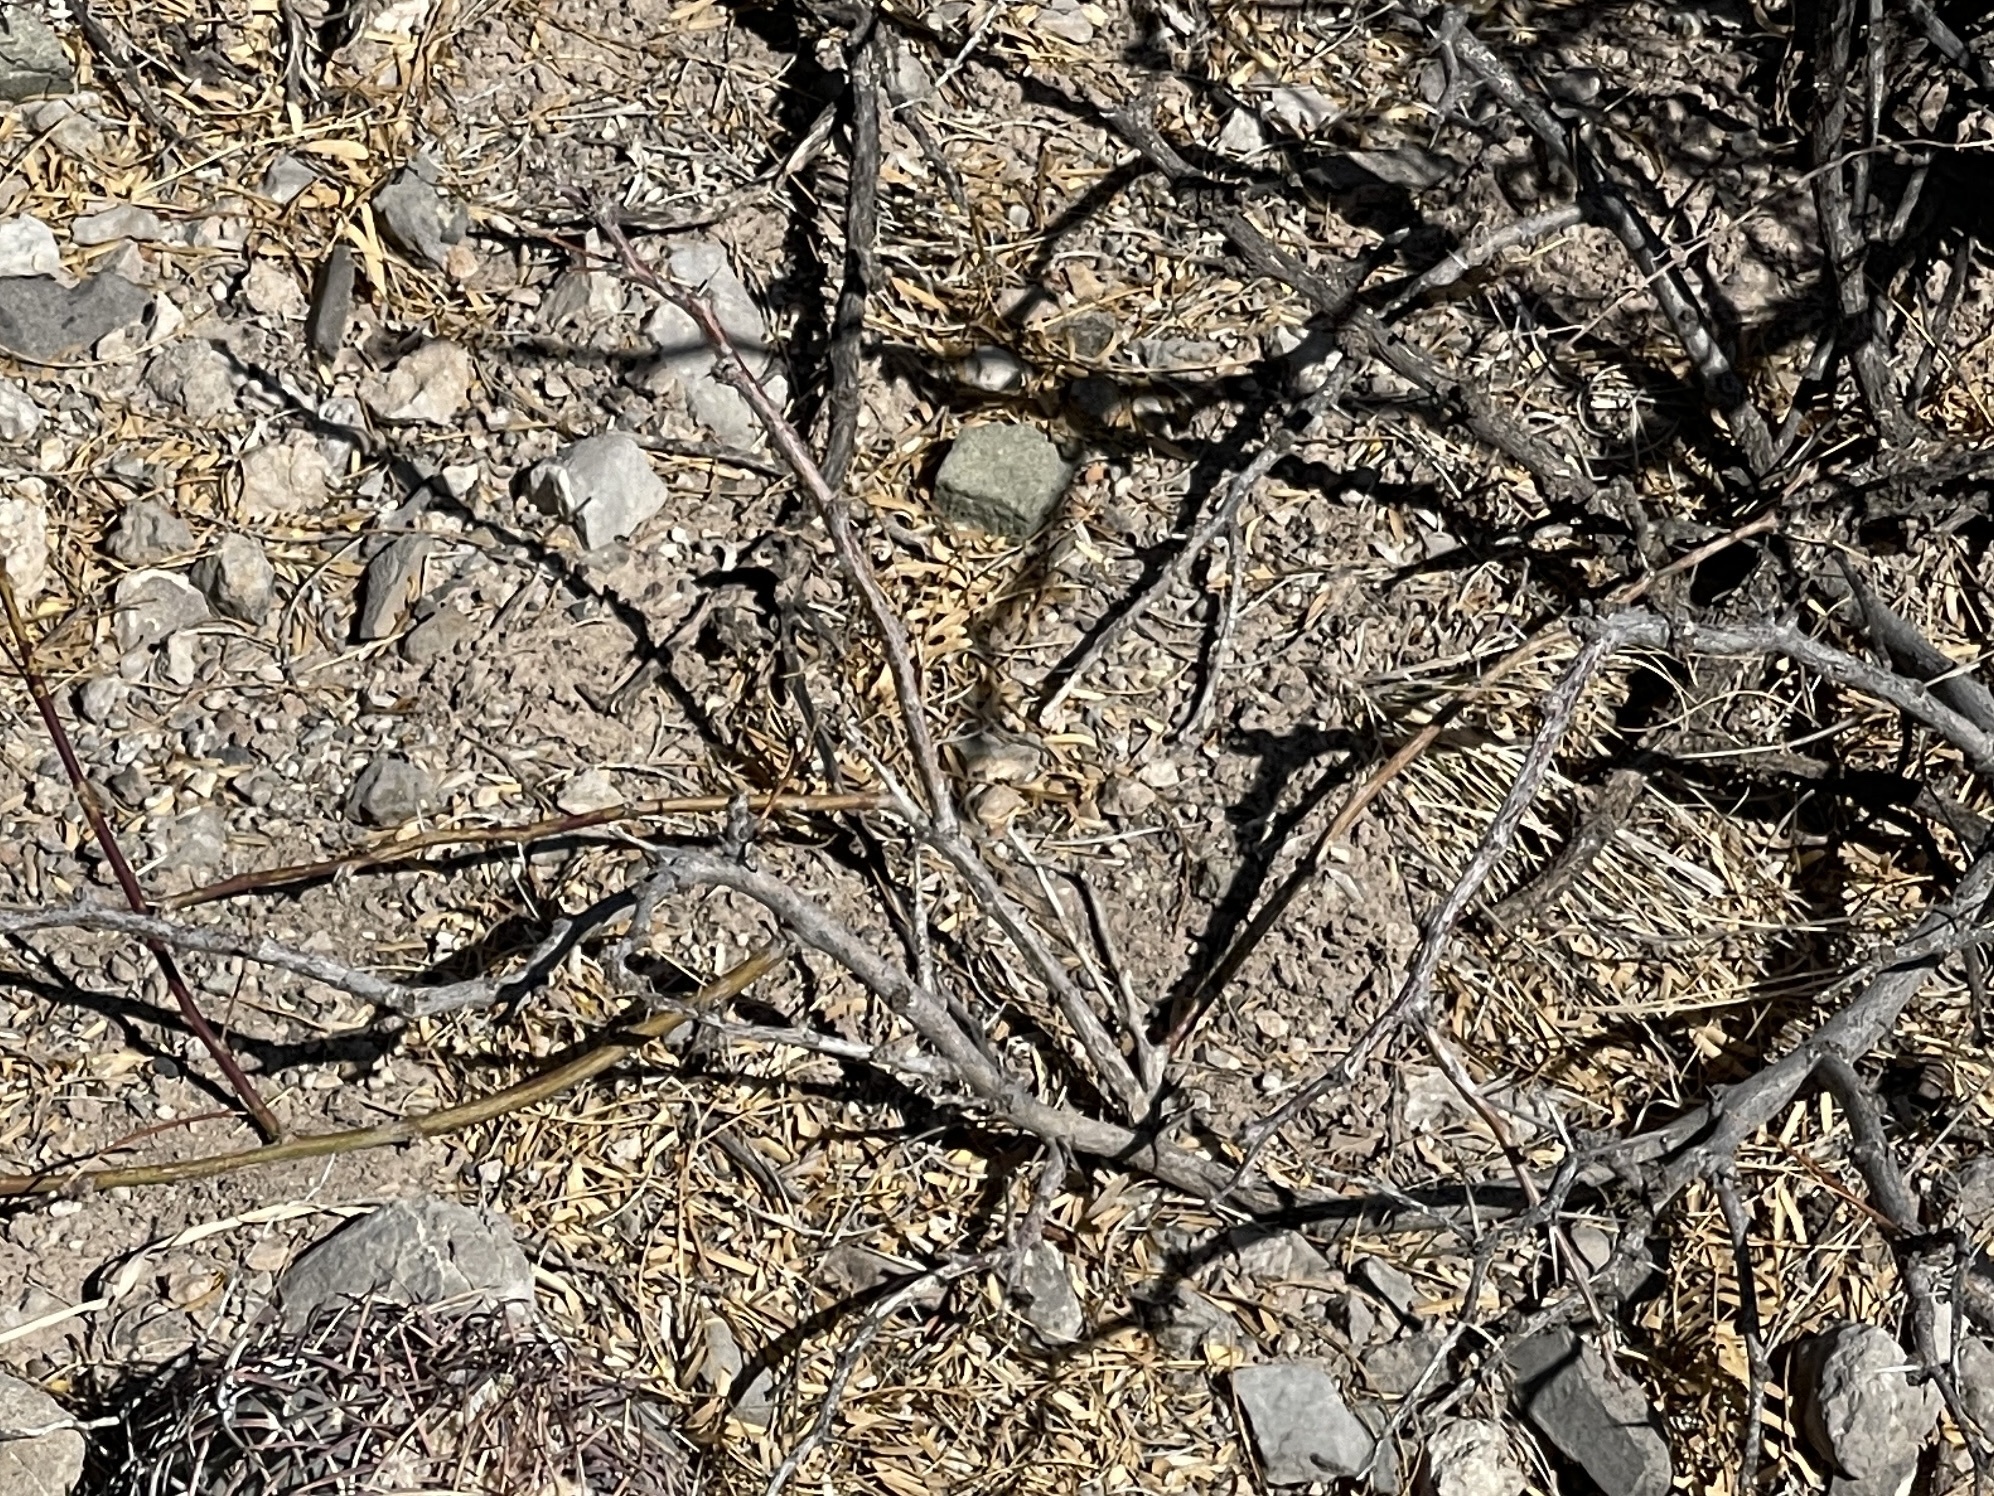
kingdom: Plantae
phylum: Tracheophyta
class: Magnoliopsida
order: Fabales
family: Fabaceae
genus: Prosopis
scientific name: Prosopis glandulosa
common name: Honey mesquite
